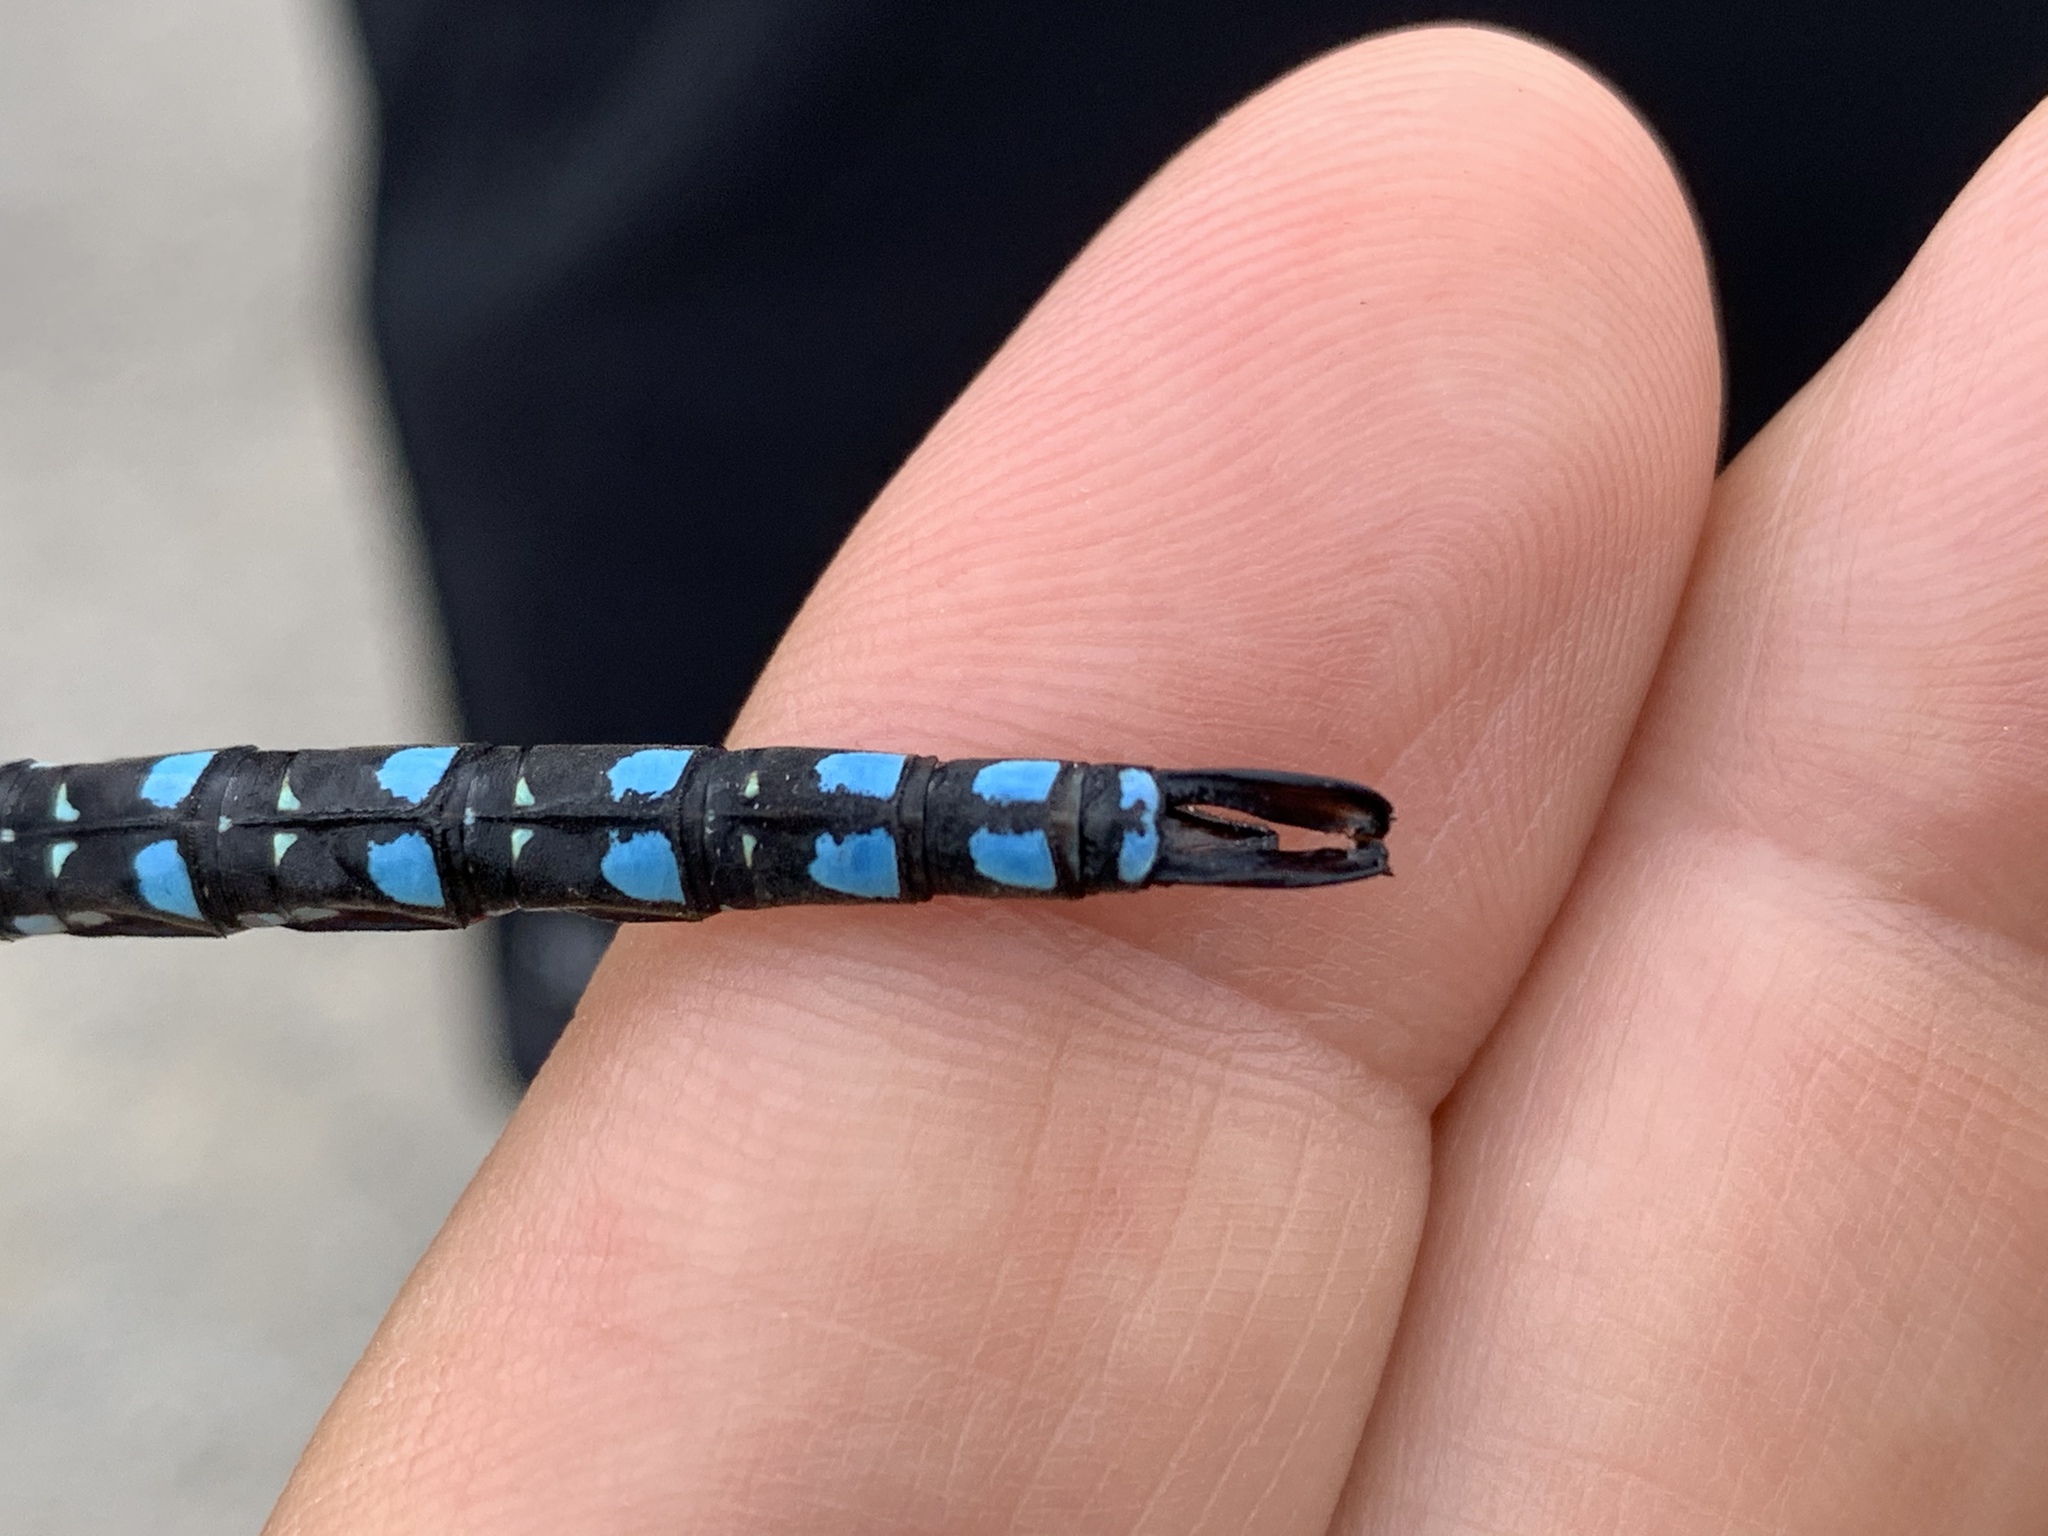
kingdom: Animalia
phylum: Arthropoda
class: Insecta
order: Odonata
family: Aeshnidae
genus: Aeshna
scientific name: Aeshna palmata
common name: Paddle-tailed darner
